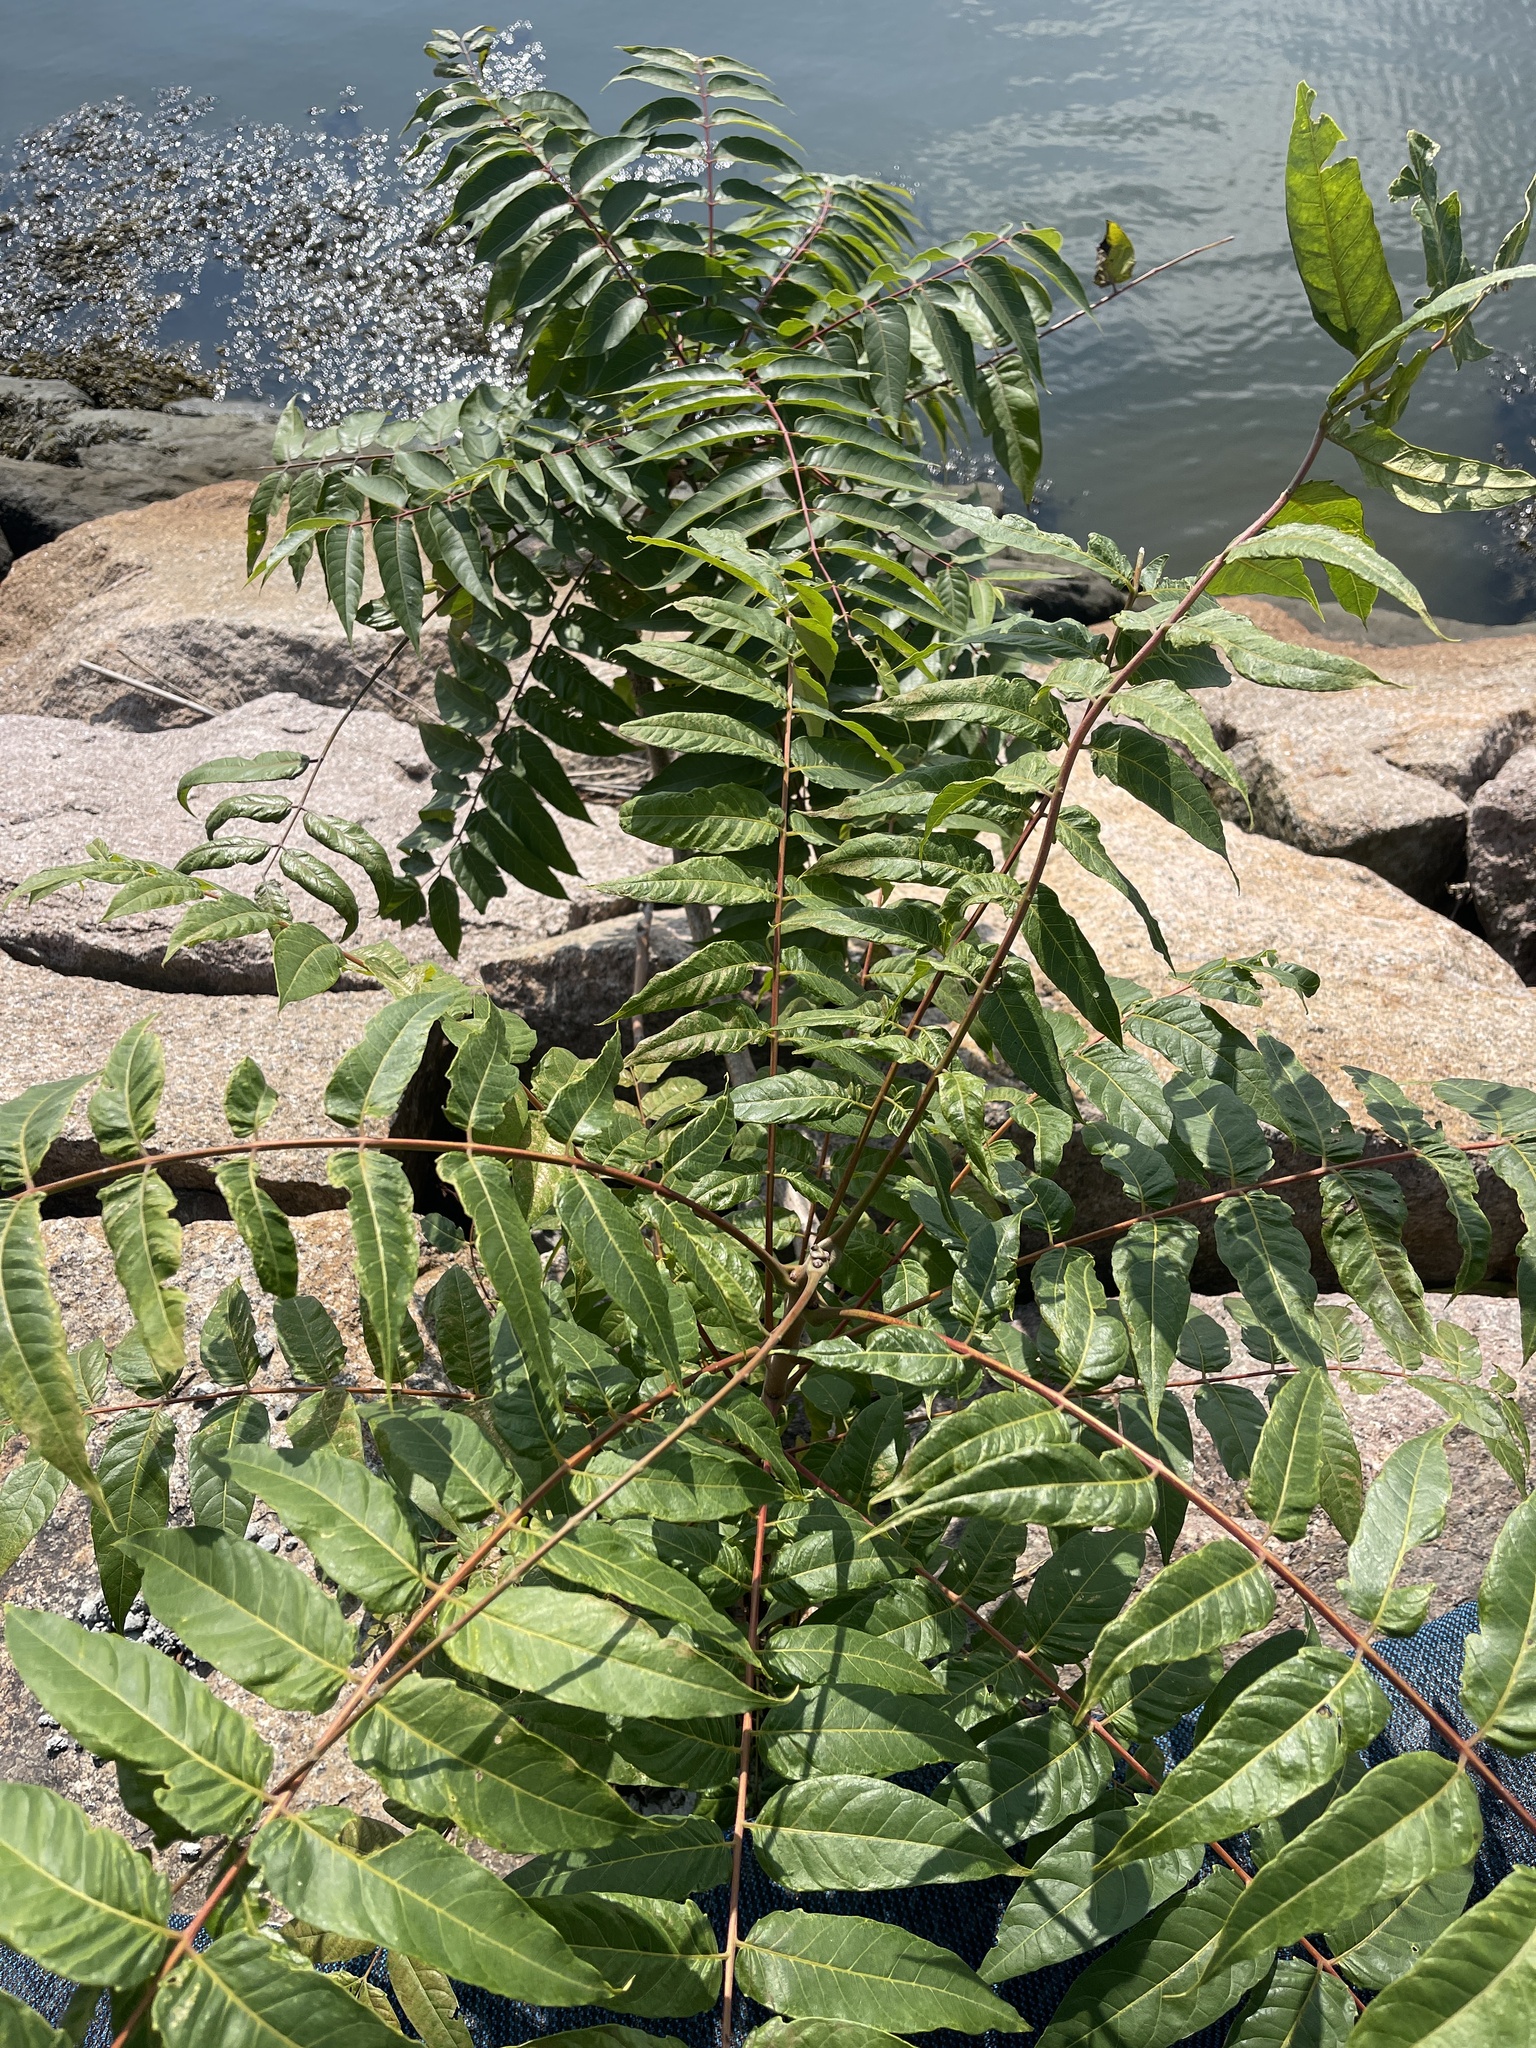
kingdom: Plantae
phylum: Tracheophyta
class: Magnoliopsida
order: Sapindales
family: Simaroubaceae
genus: Ailanthus
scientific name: Ailanthus altissima
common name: Tree-of-heaven
